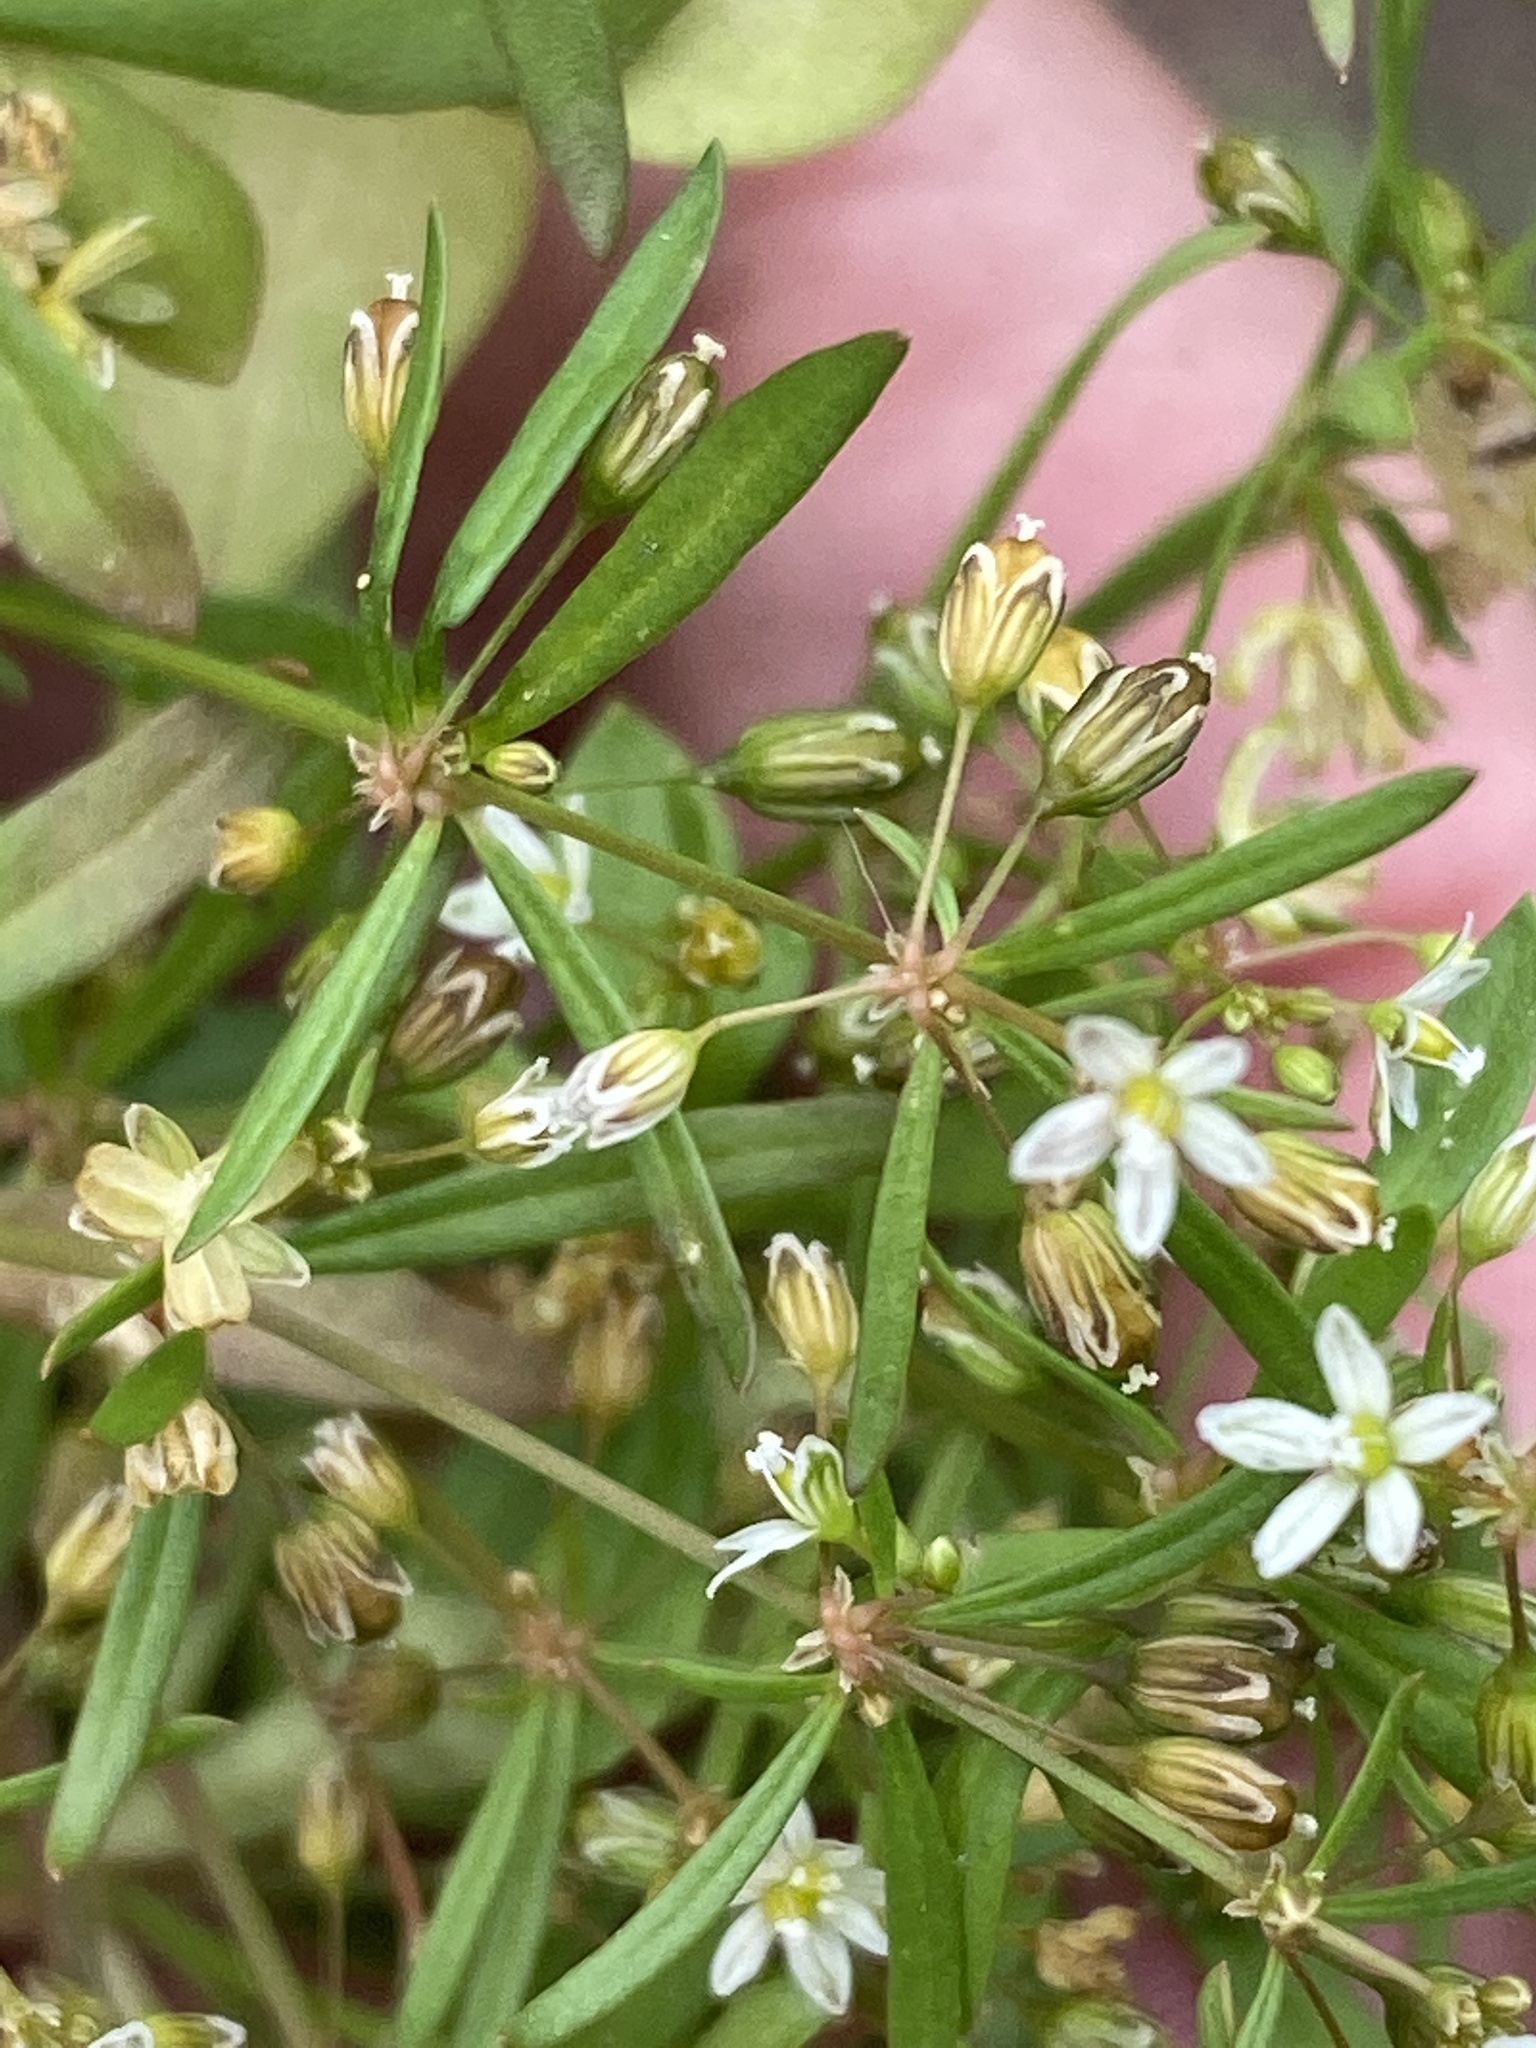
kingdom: Plantae
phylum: Tracheophyta
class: Magnoliopsida
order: Caryophyllales
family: Molluginaceae
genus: Mollugo
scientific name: Mollugo verticillata
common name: Green carpetweed
